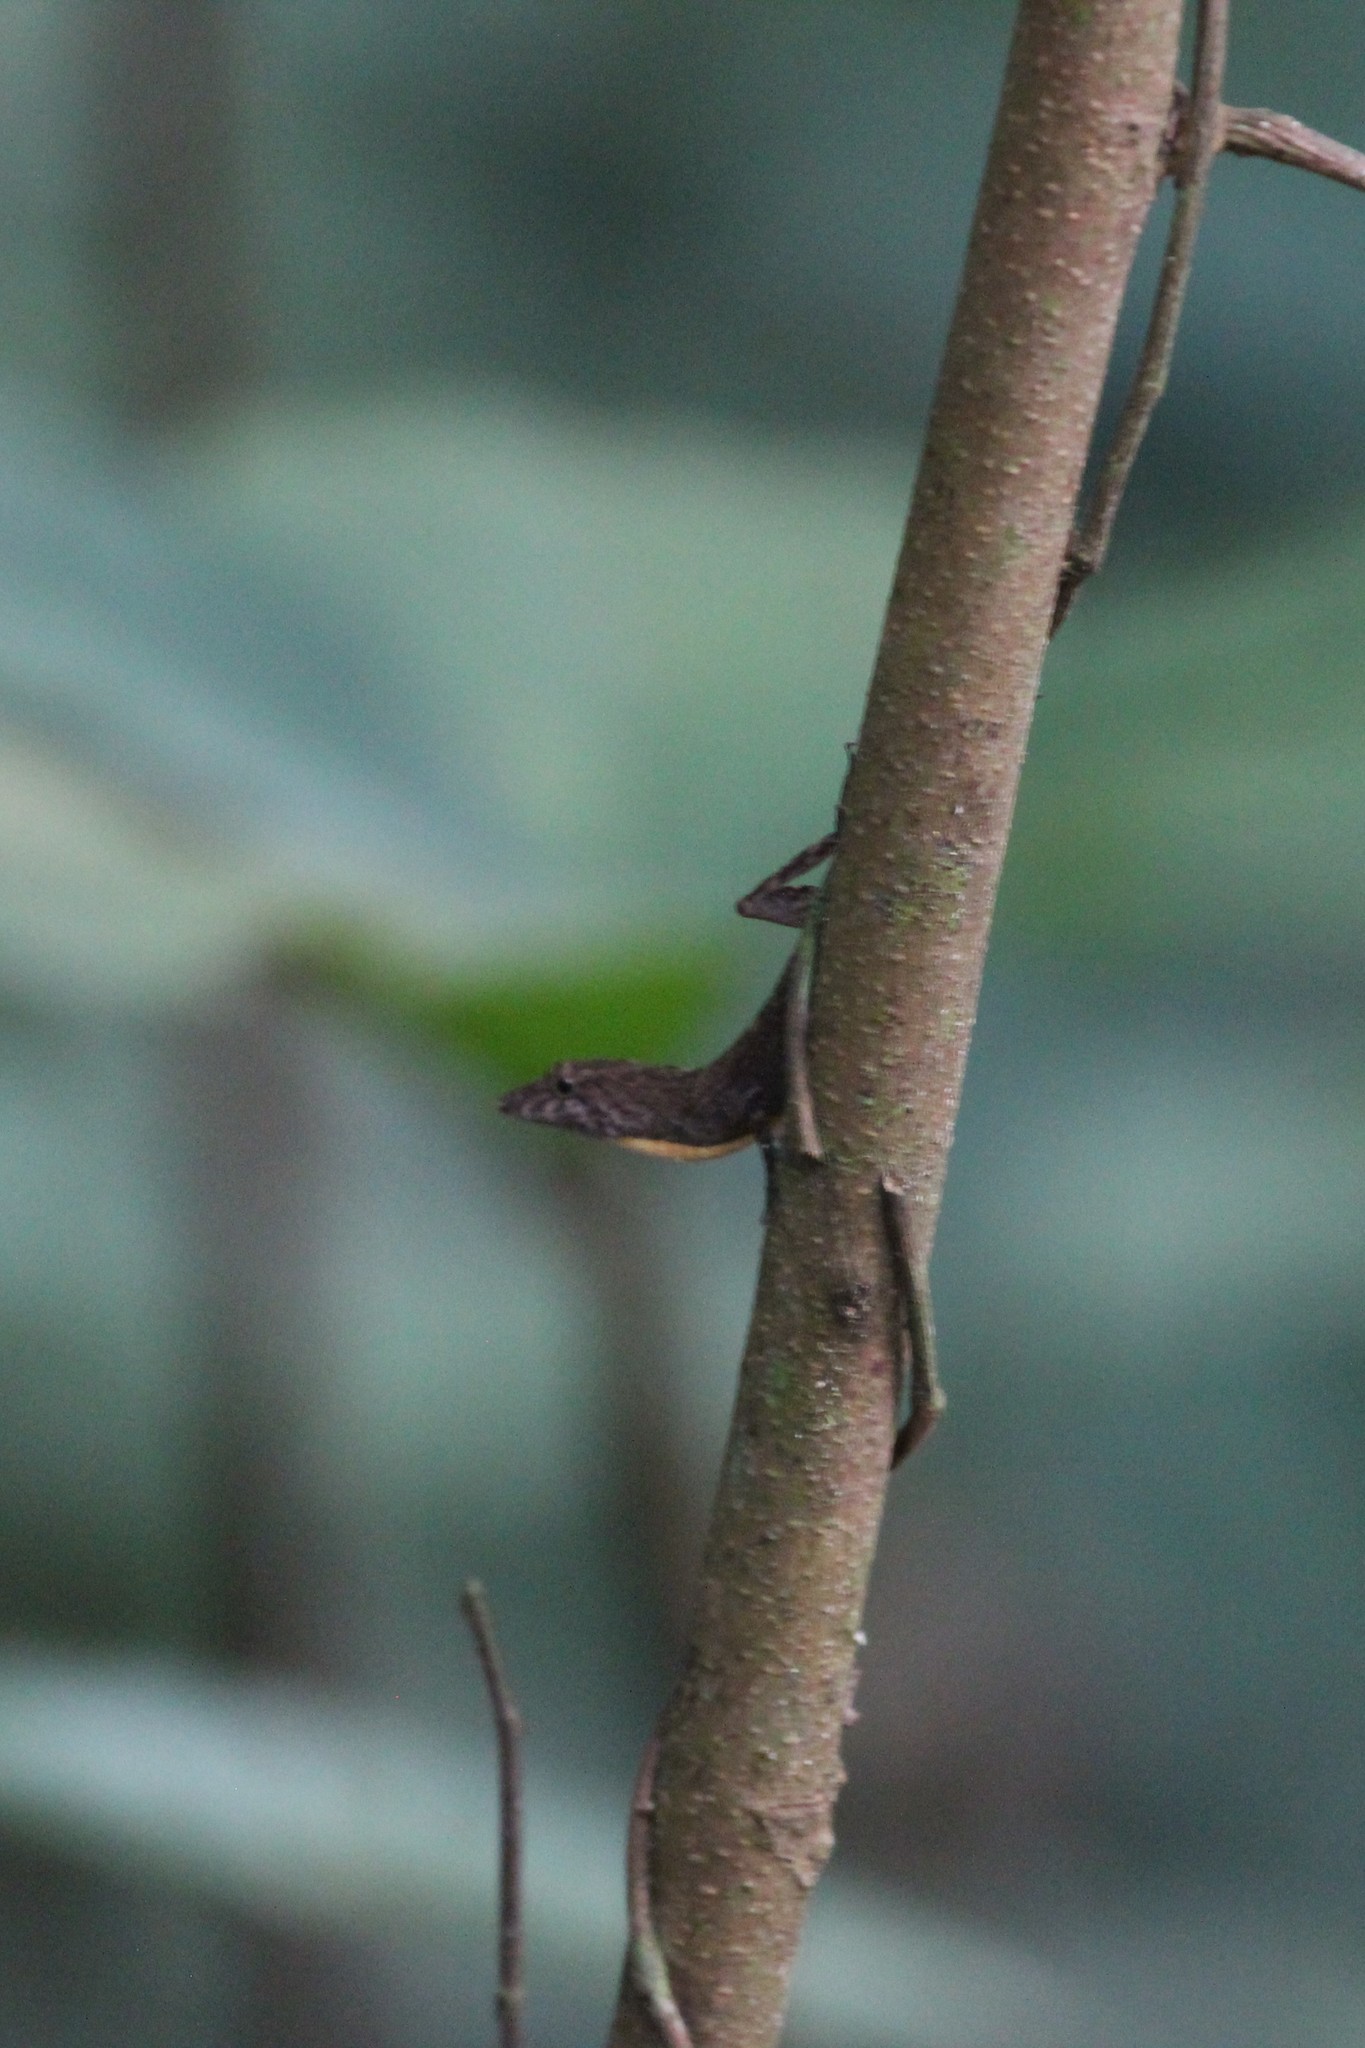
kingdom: Animalia
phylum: Chordata
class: Squamata
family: Dactyloidae
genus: Anolis
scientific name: Anolis osa
